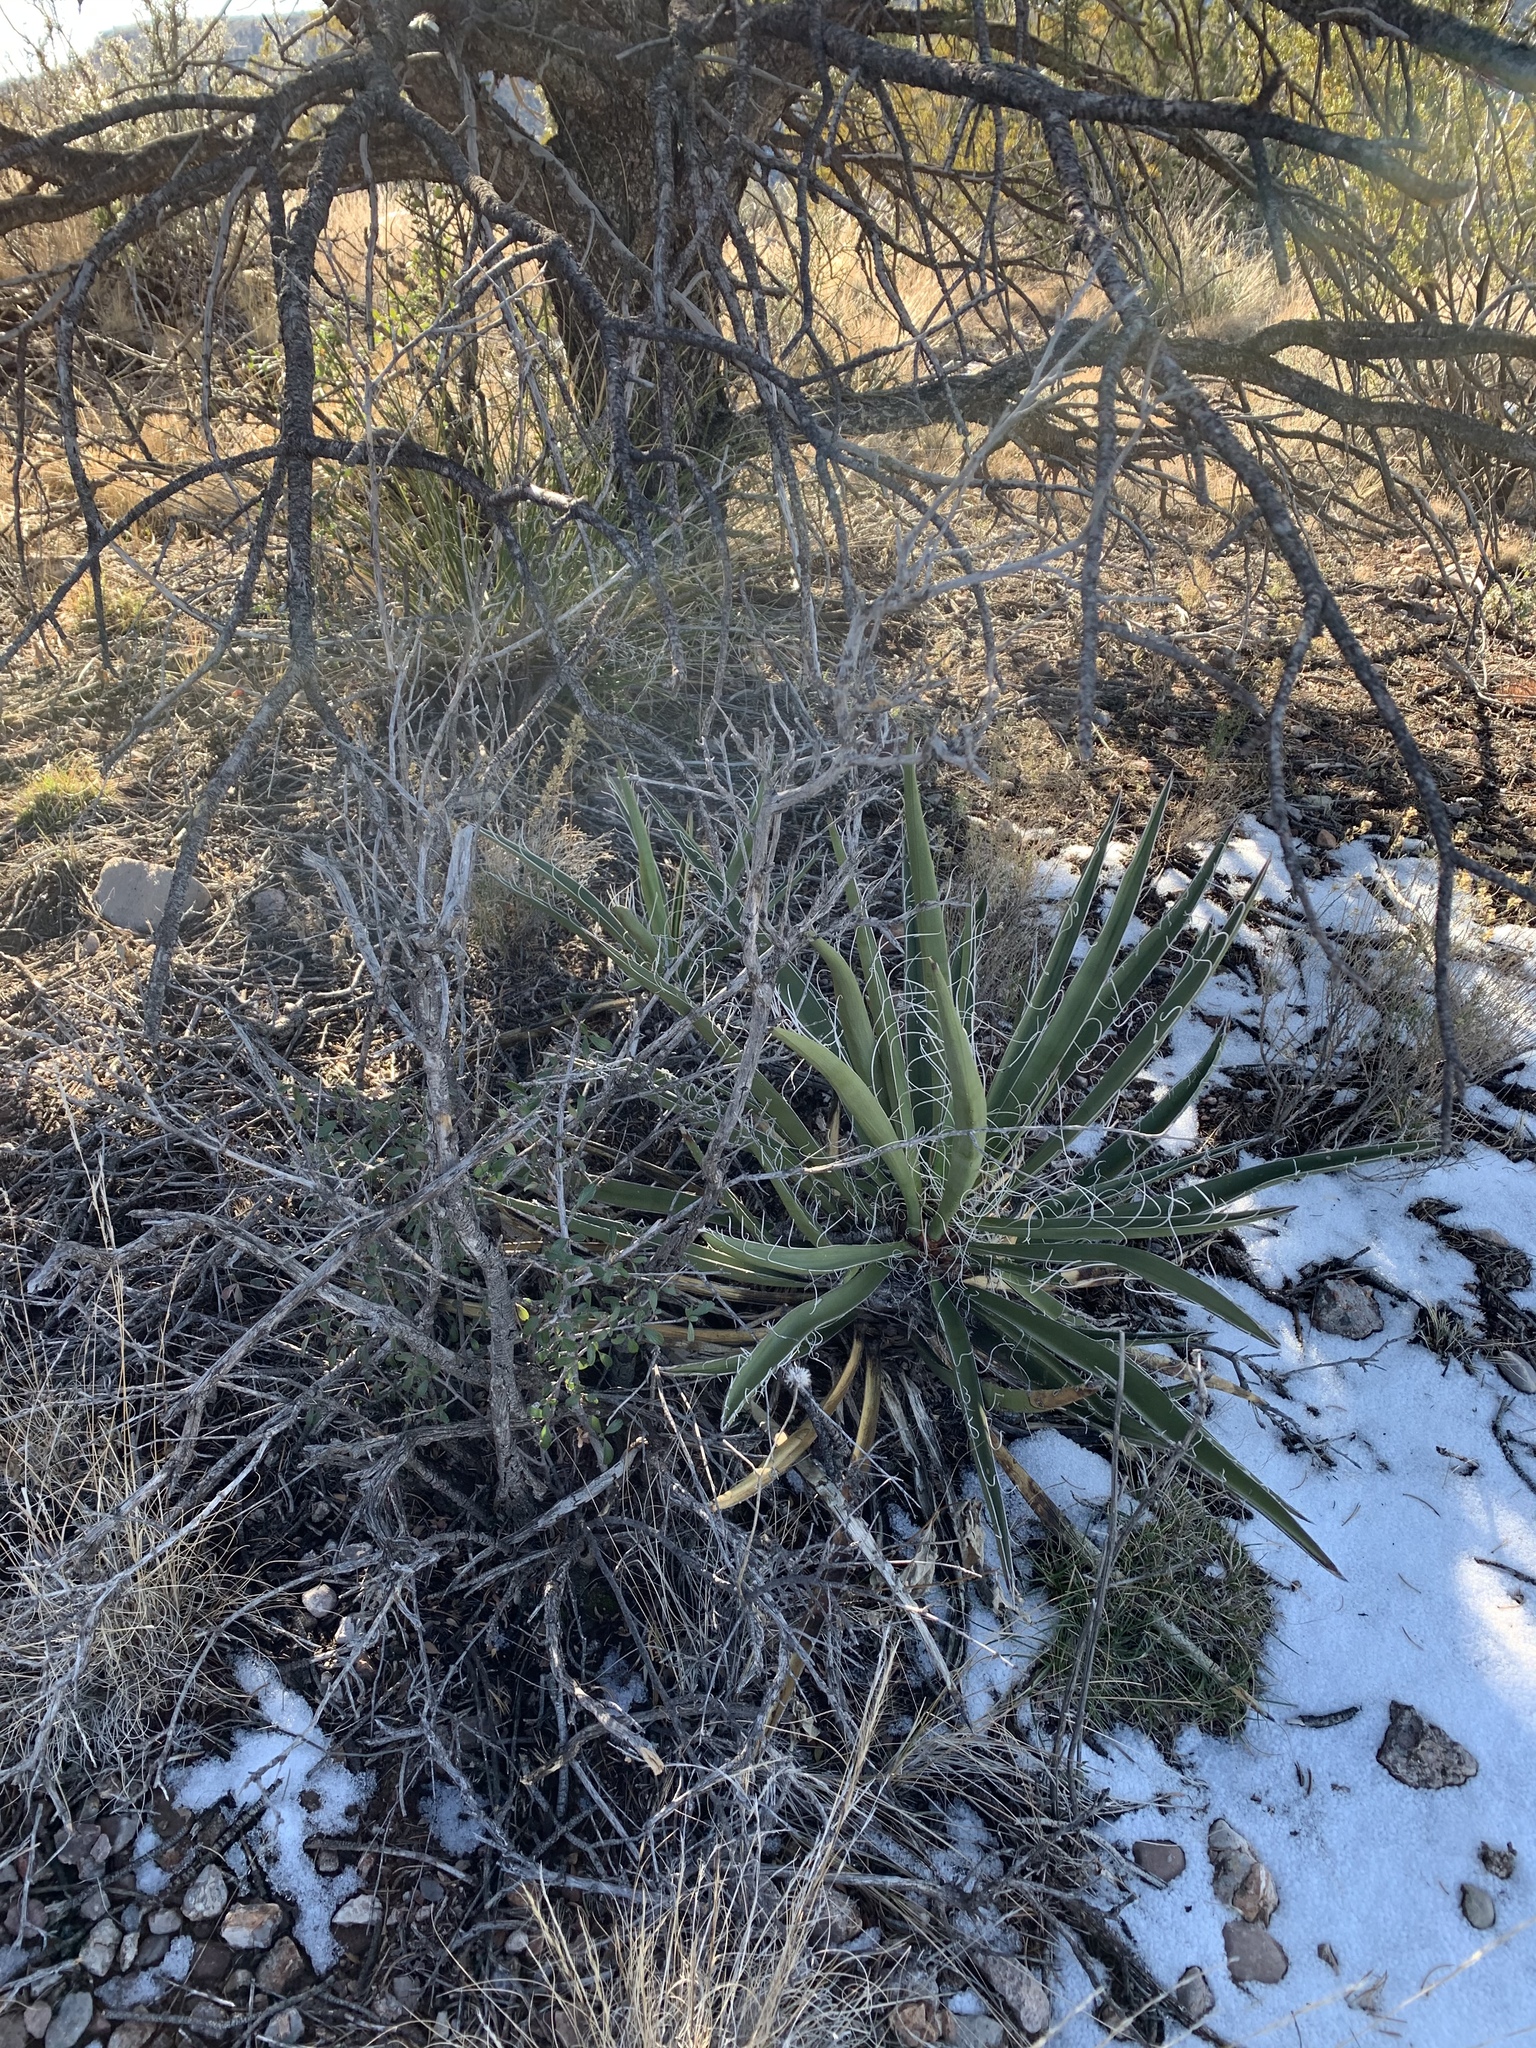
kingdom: Plantae
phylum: Tracheophyta
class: Liliopsida
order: Asparagales
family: Asparagaceae
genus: Yucca
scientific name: Yucca baccata
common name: Banana yucca
